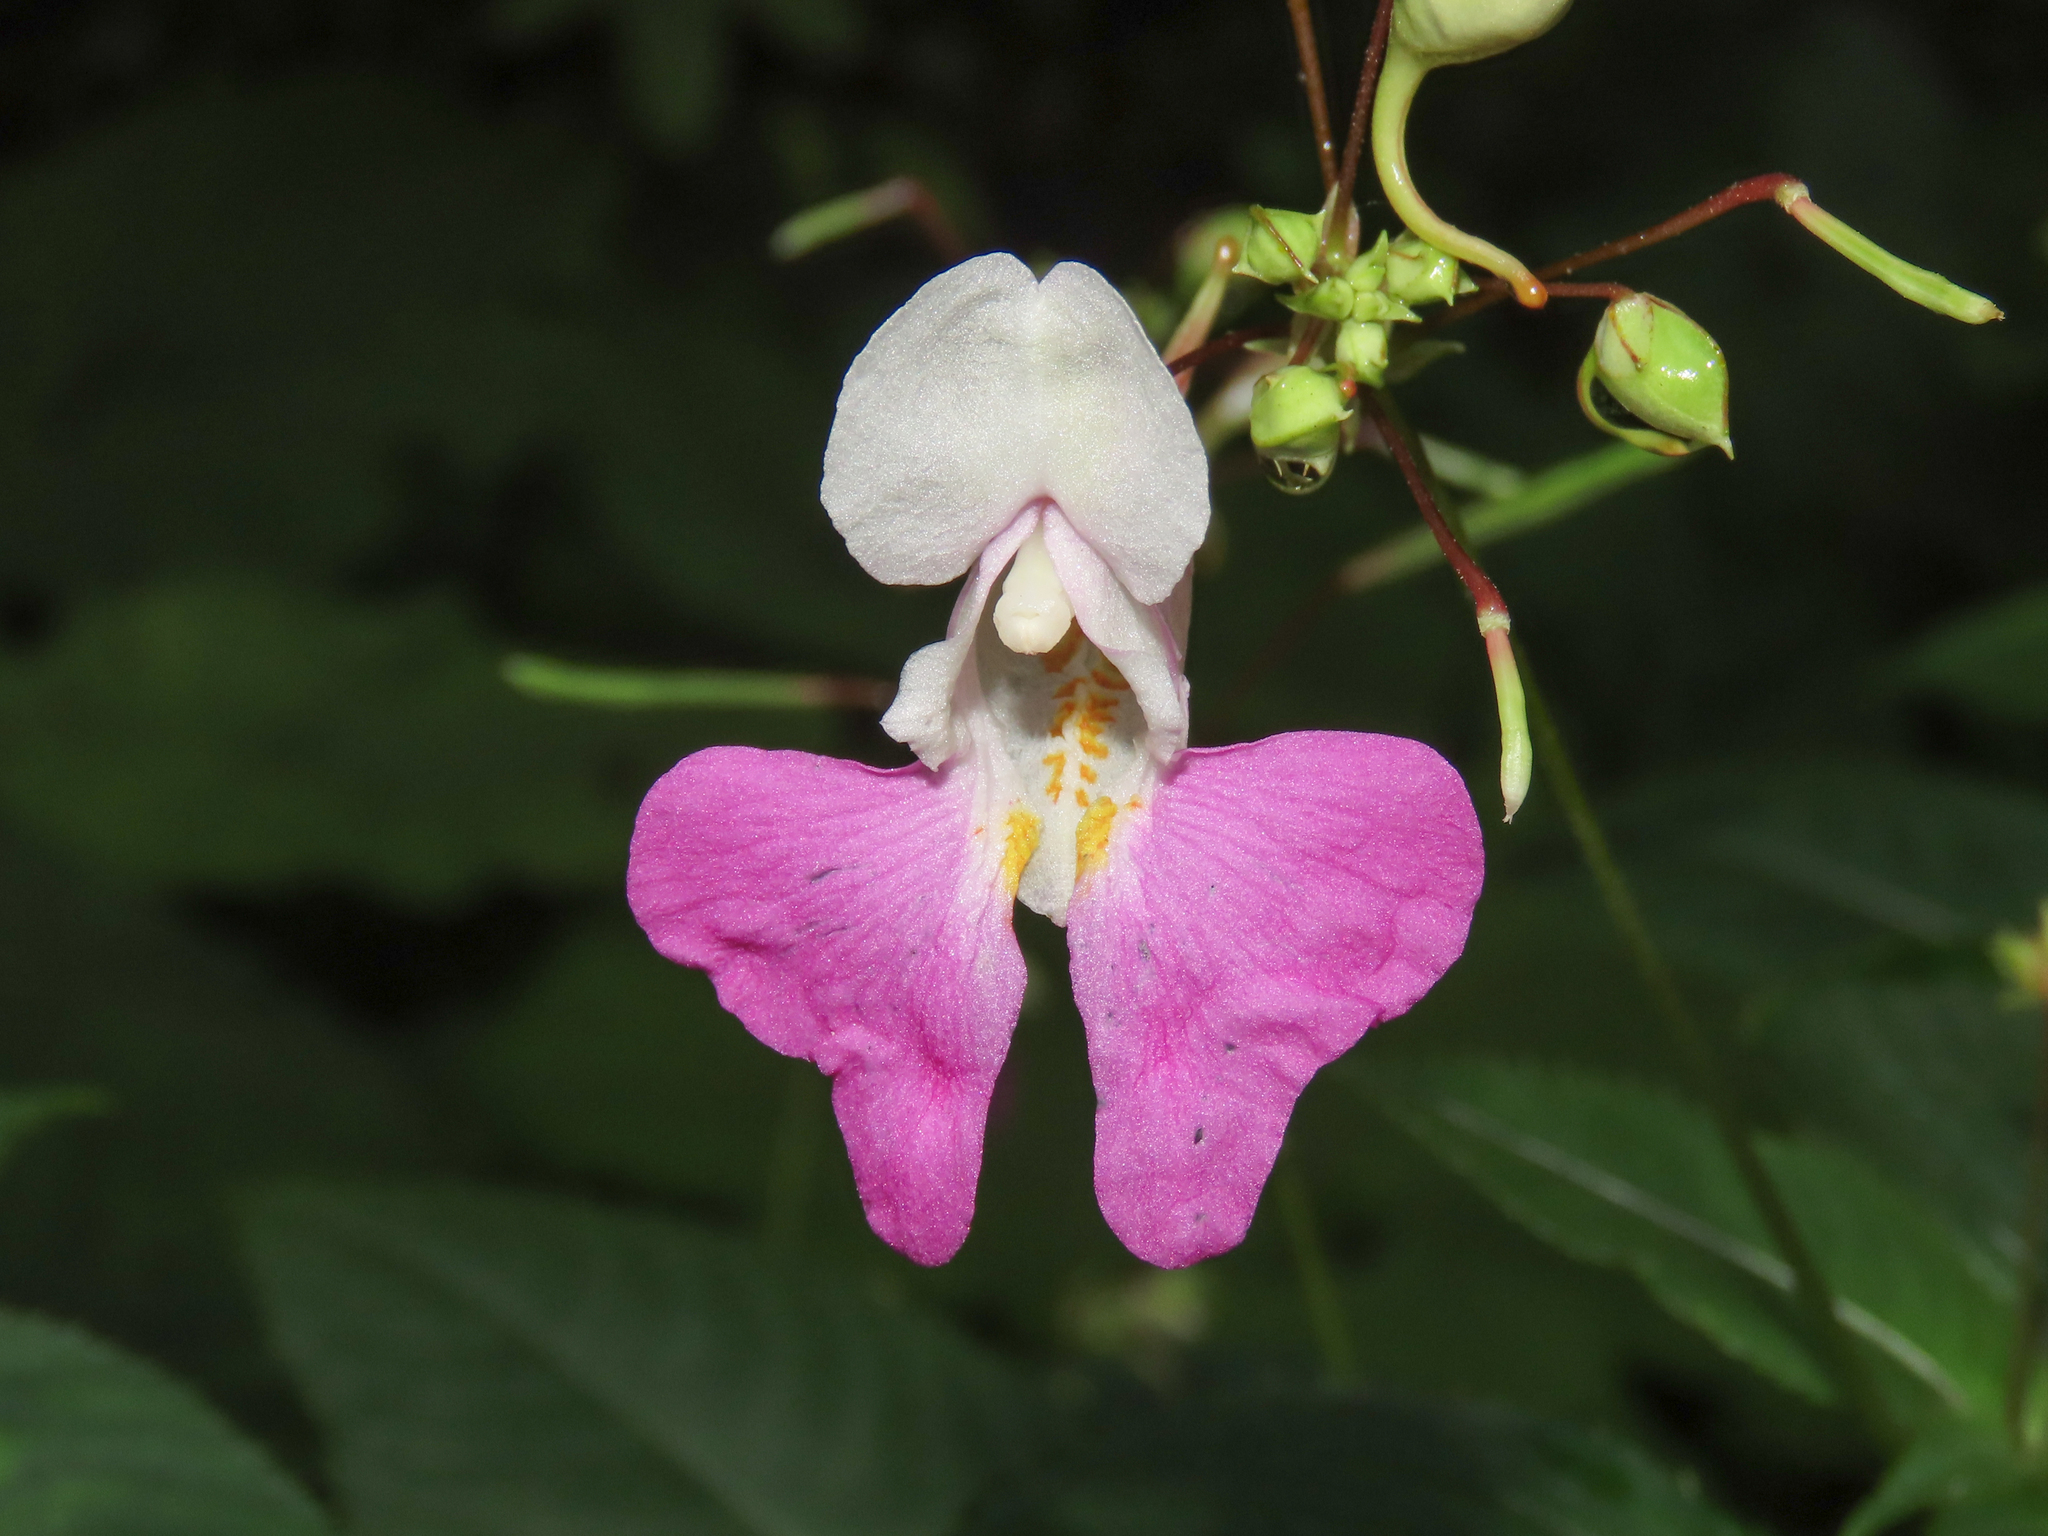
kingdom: Plantae
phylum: Tracheophyta
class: Magnoliopsida
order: Ericales
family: Balsaminaceae
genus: Impatiens
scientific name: Impatiens balfourii
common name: Balfour's touch-me-not
